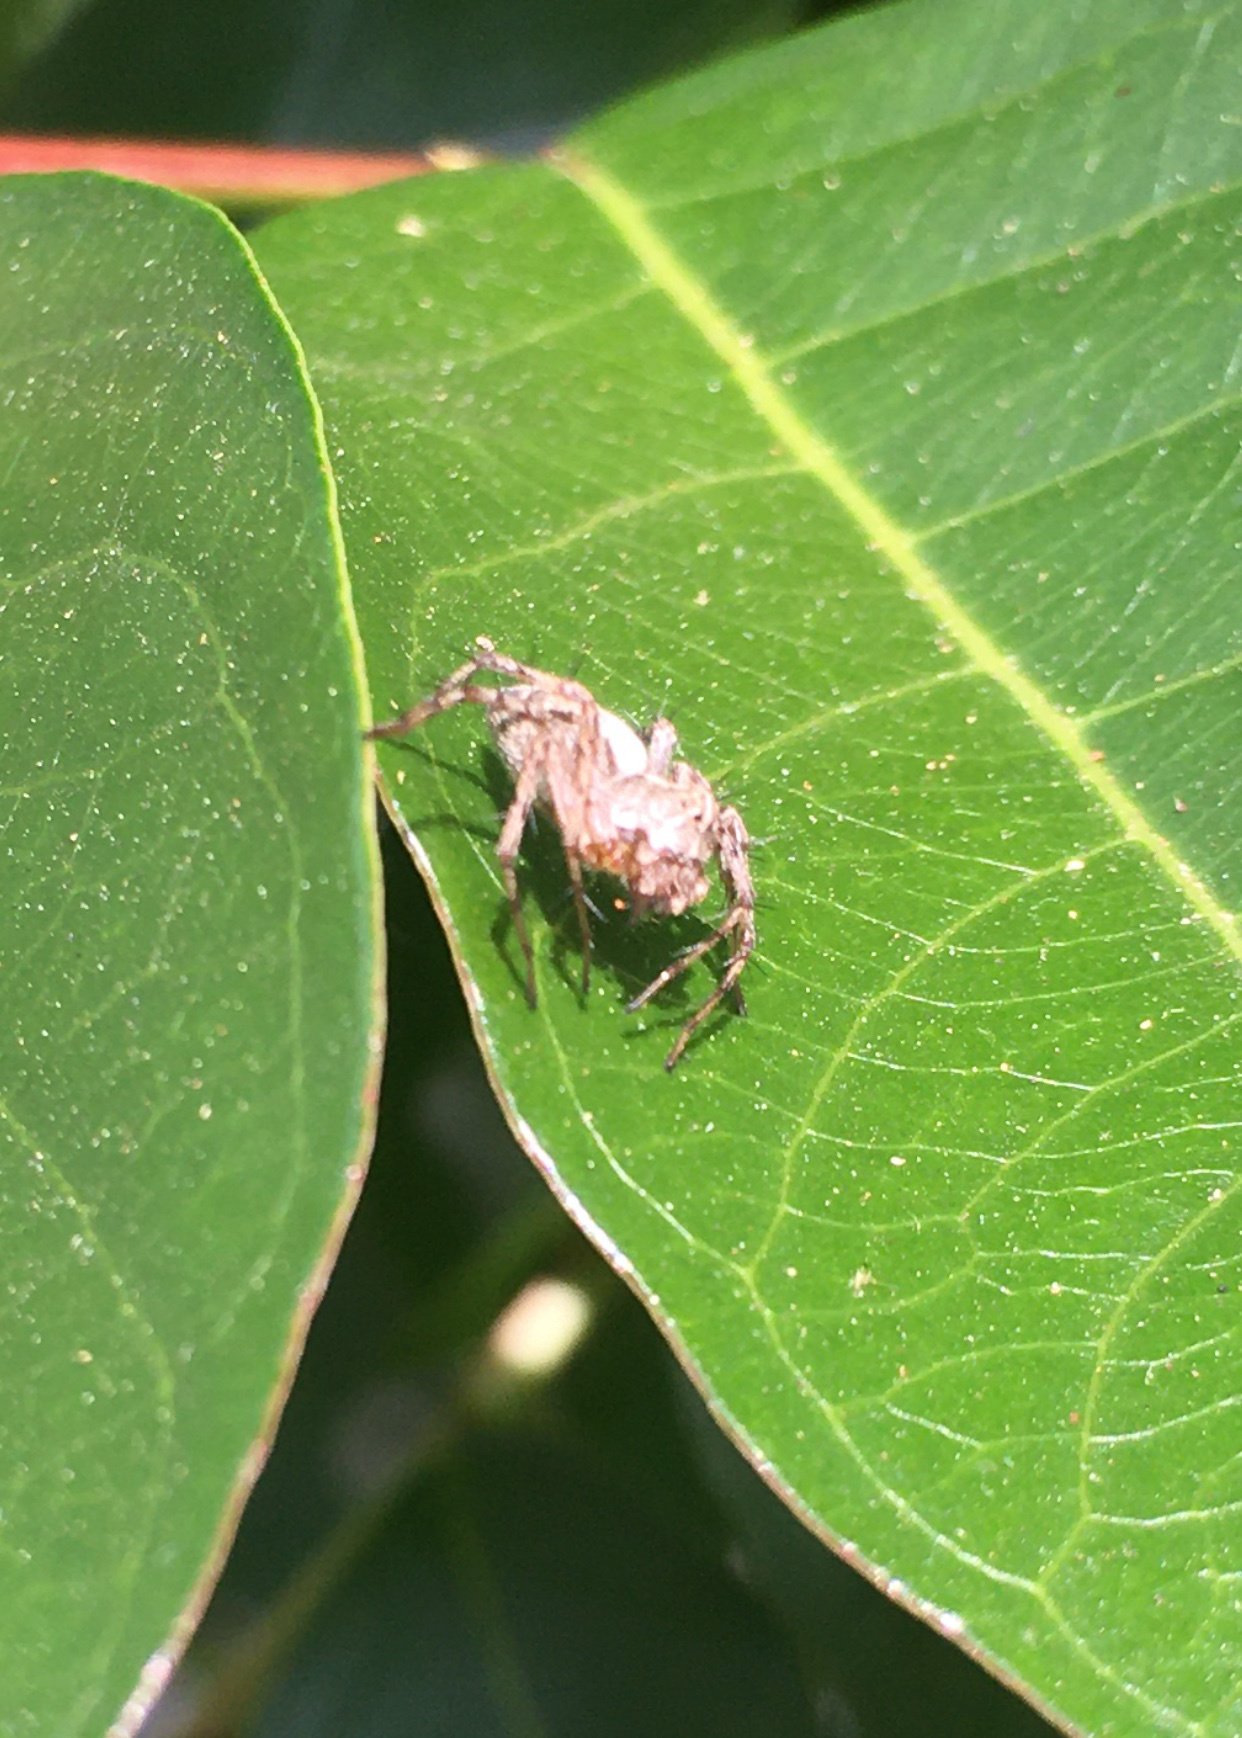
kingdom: Animalia
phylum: Arthropoda
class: Arachnida
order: Araneae
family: Oxyopidae
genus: Oxyopes
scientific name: Oxyopes scalaris
